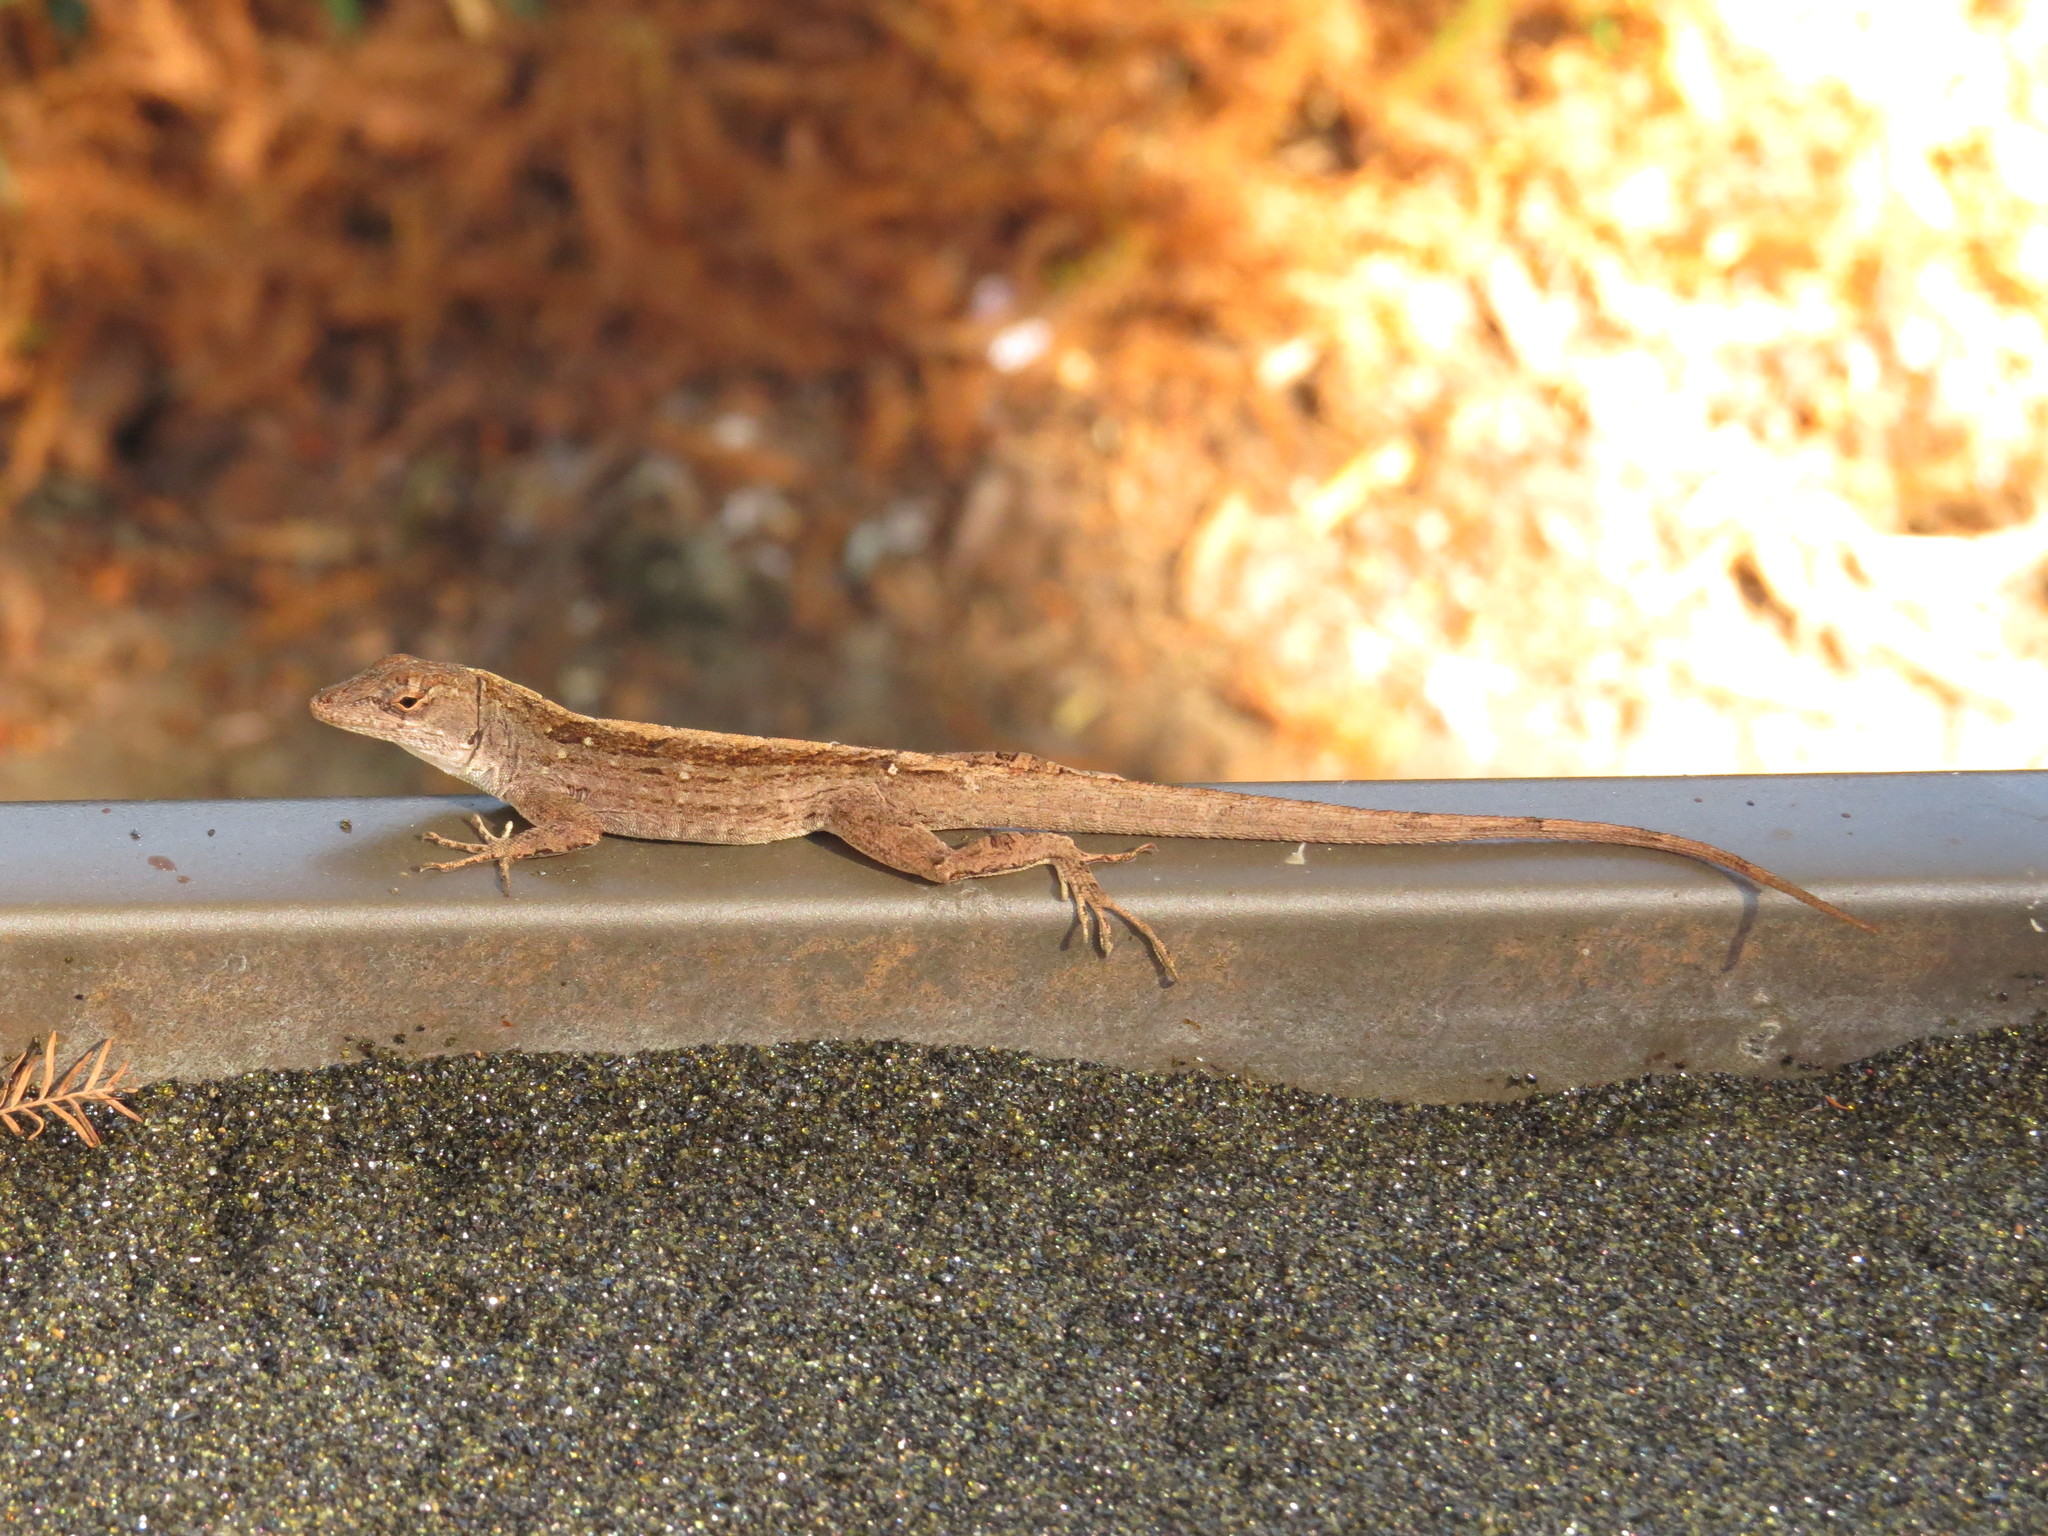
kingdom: Animalia
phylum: Chordata
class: Squamata
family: Dactyloidae
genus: Anolis
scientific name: Anolis sagrei
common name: Brown anole
